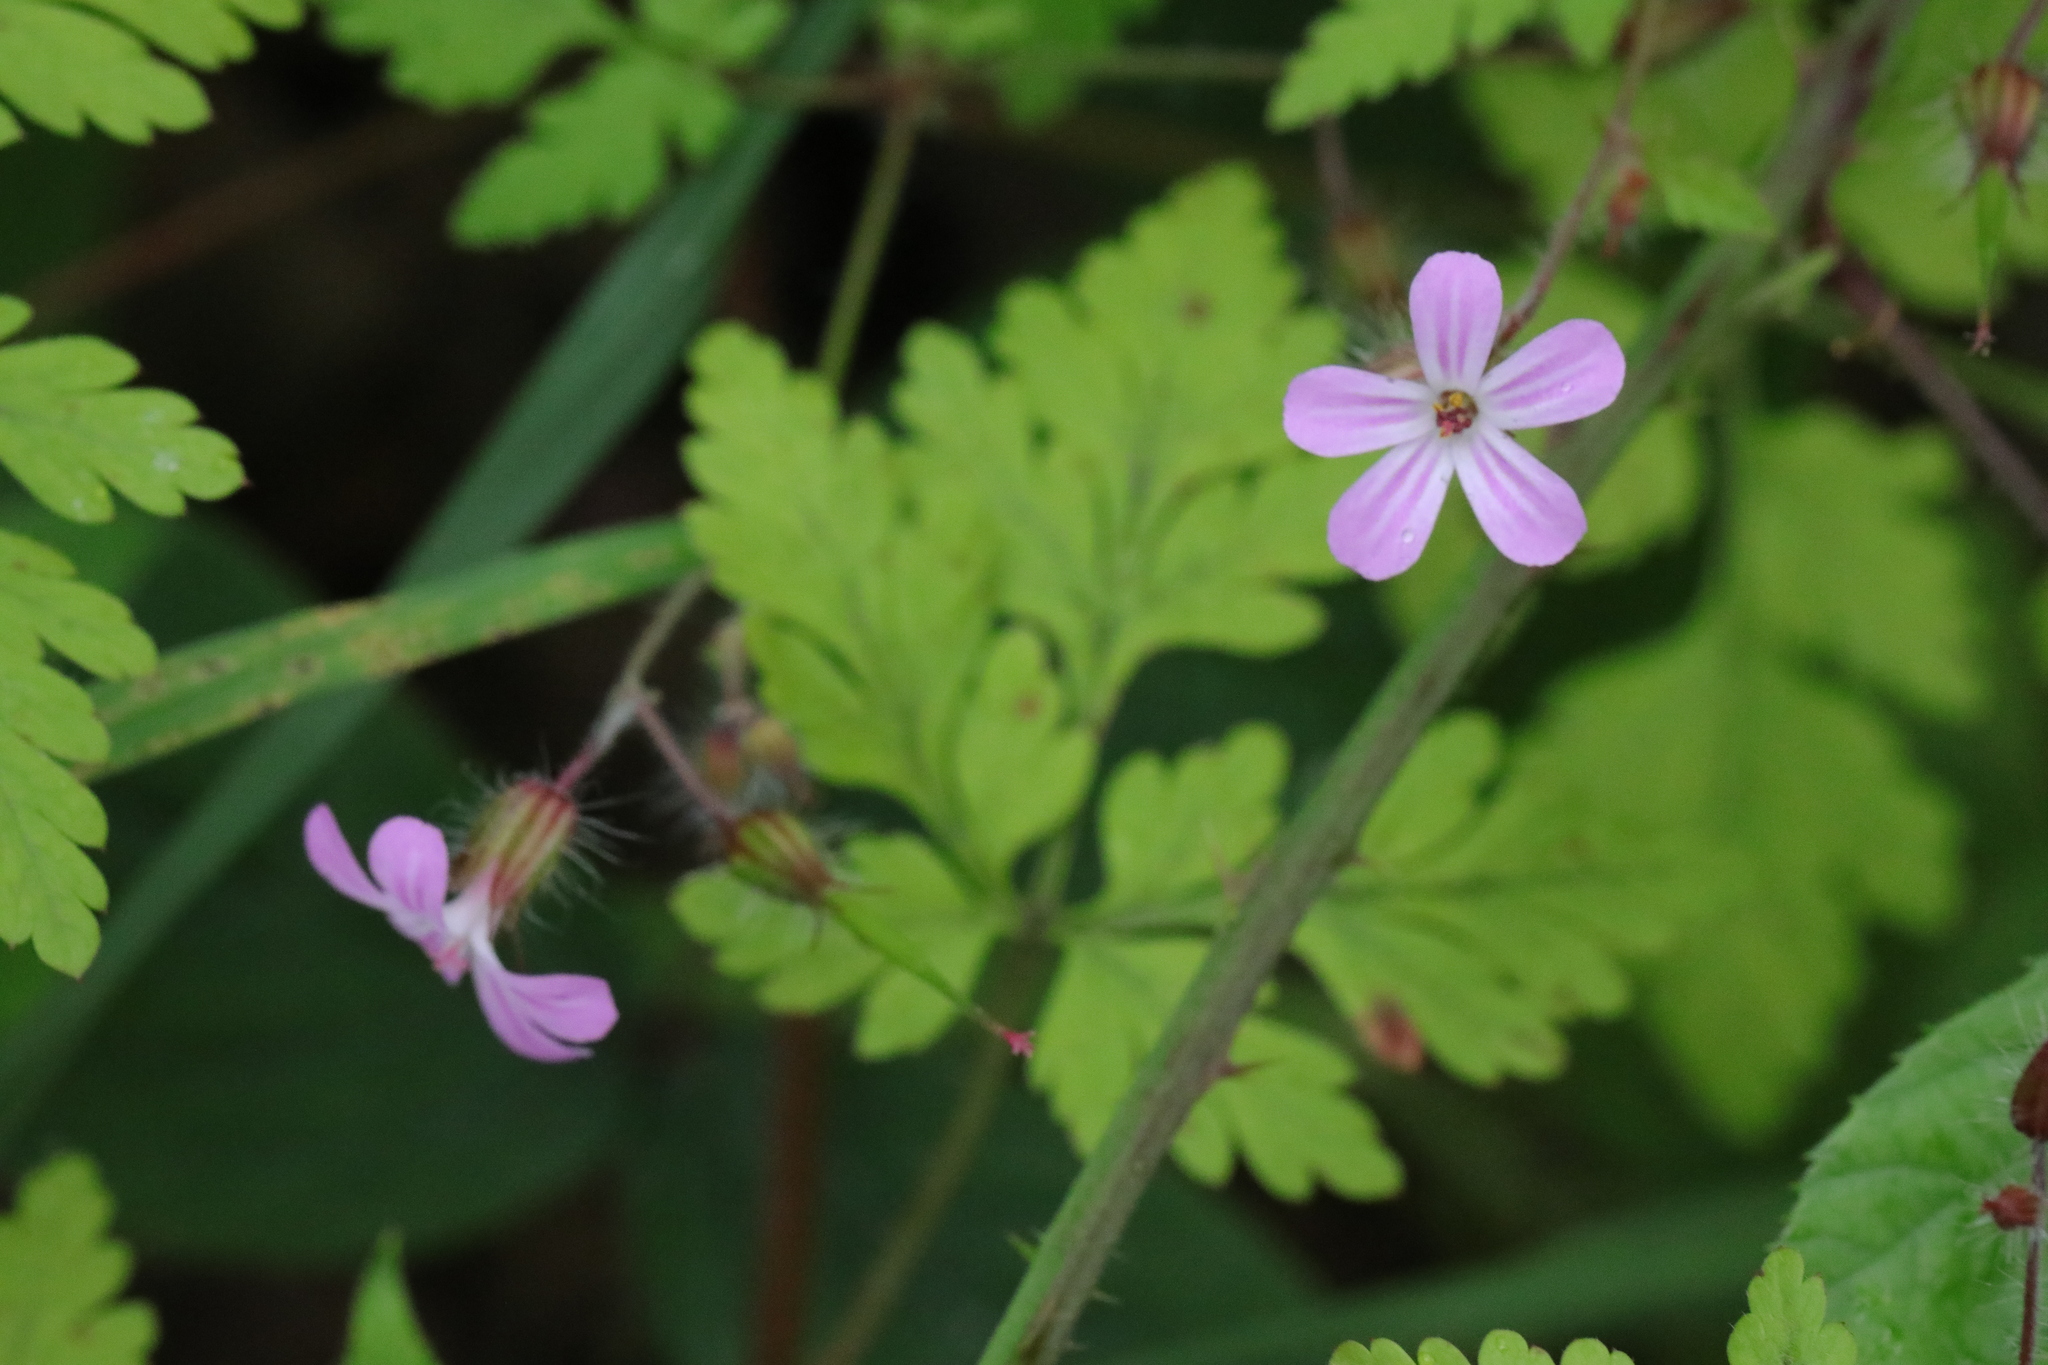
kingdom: Plantae
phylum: Tracheophyta
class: Magnoliopsida
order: Geraniales
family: Geraniaceae
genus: Geranium
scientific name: Geranium robertianum
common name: Herb-robert
